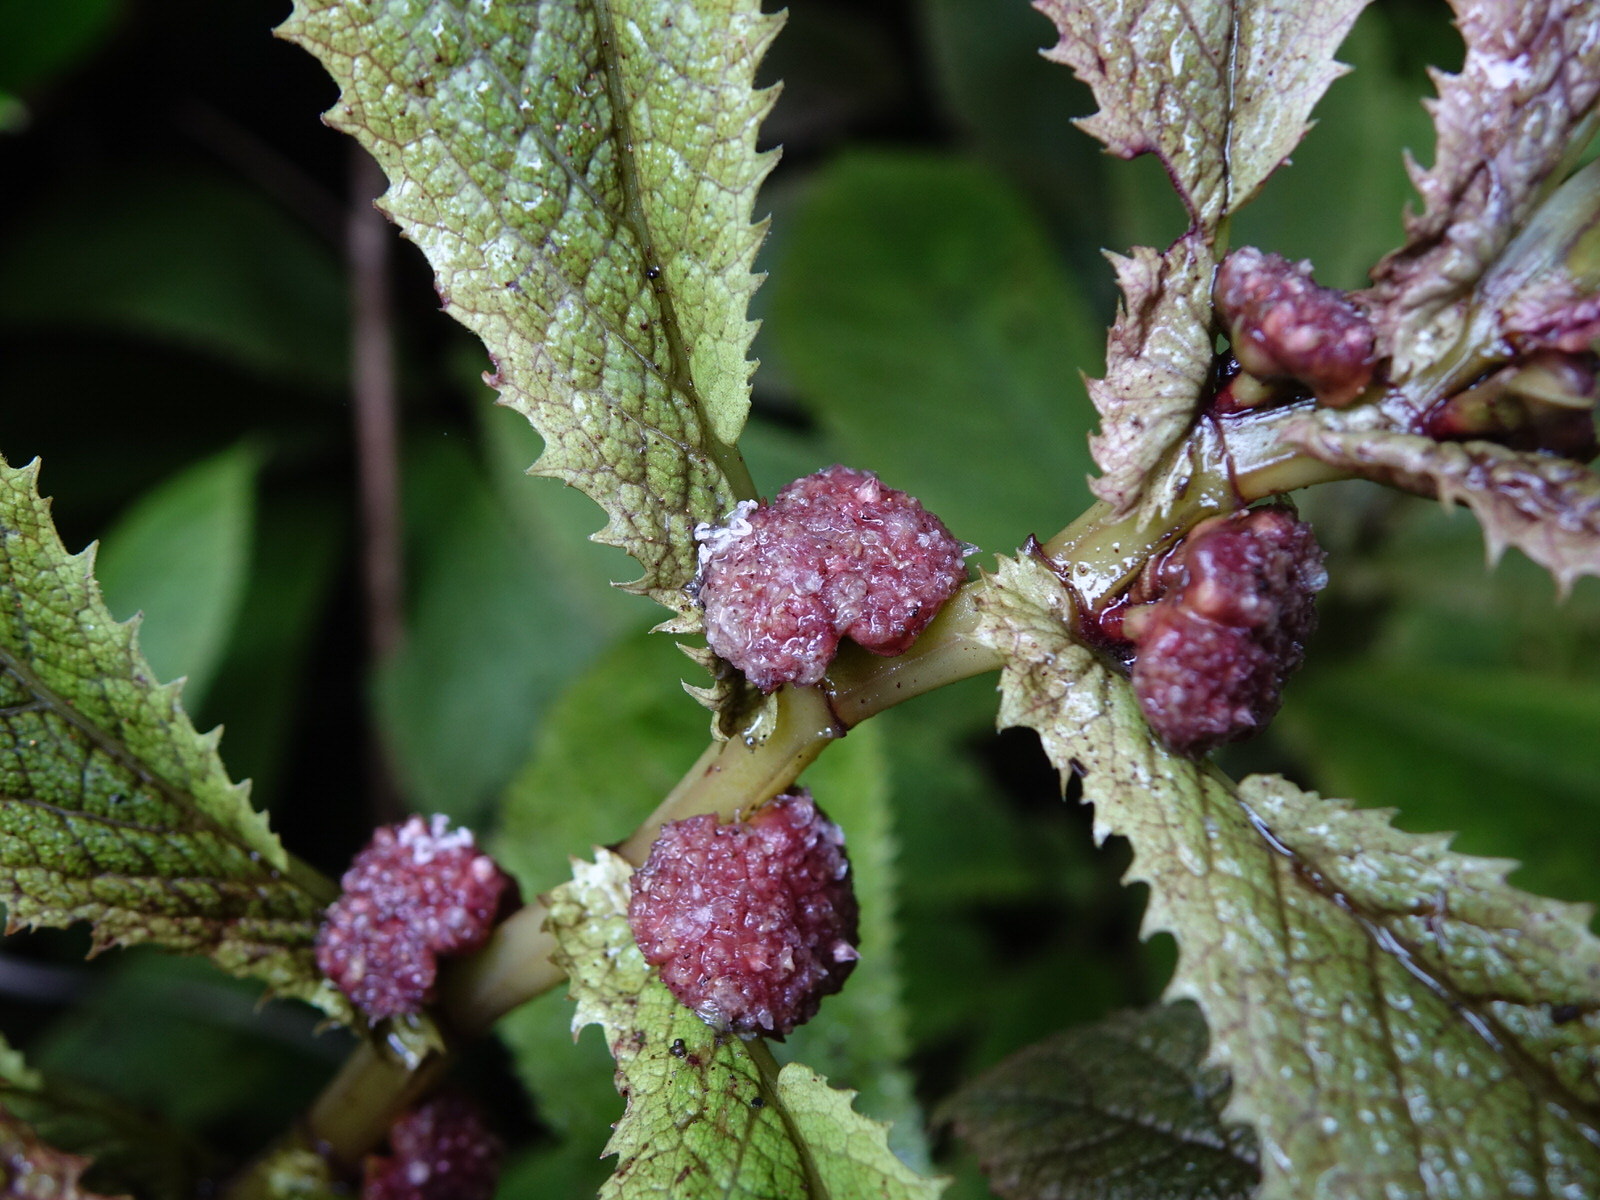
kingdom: Plantae
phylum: Tracheophyta
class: Magnoliopsida
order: Rosales
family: Urticaceae
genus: Elatostema
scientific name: Elatostema rugosum
